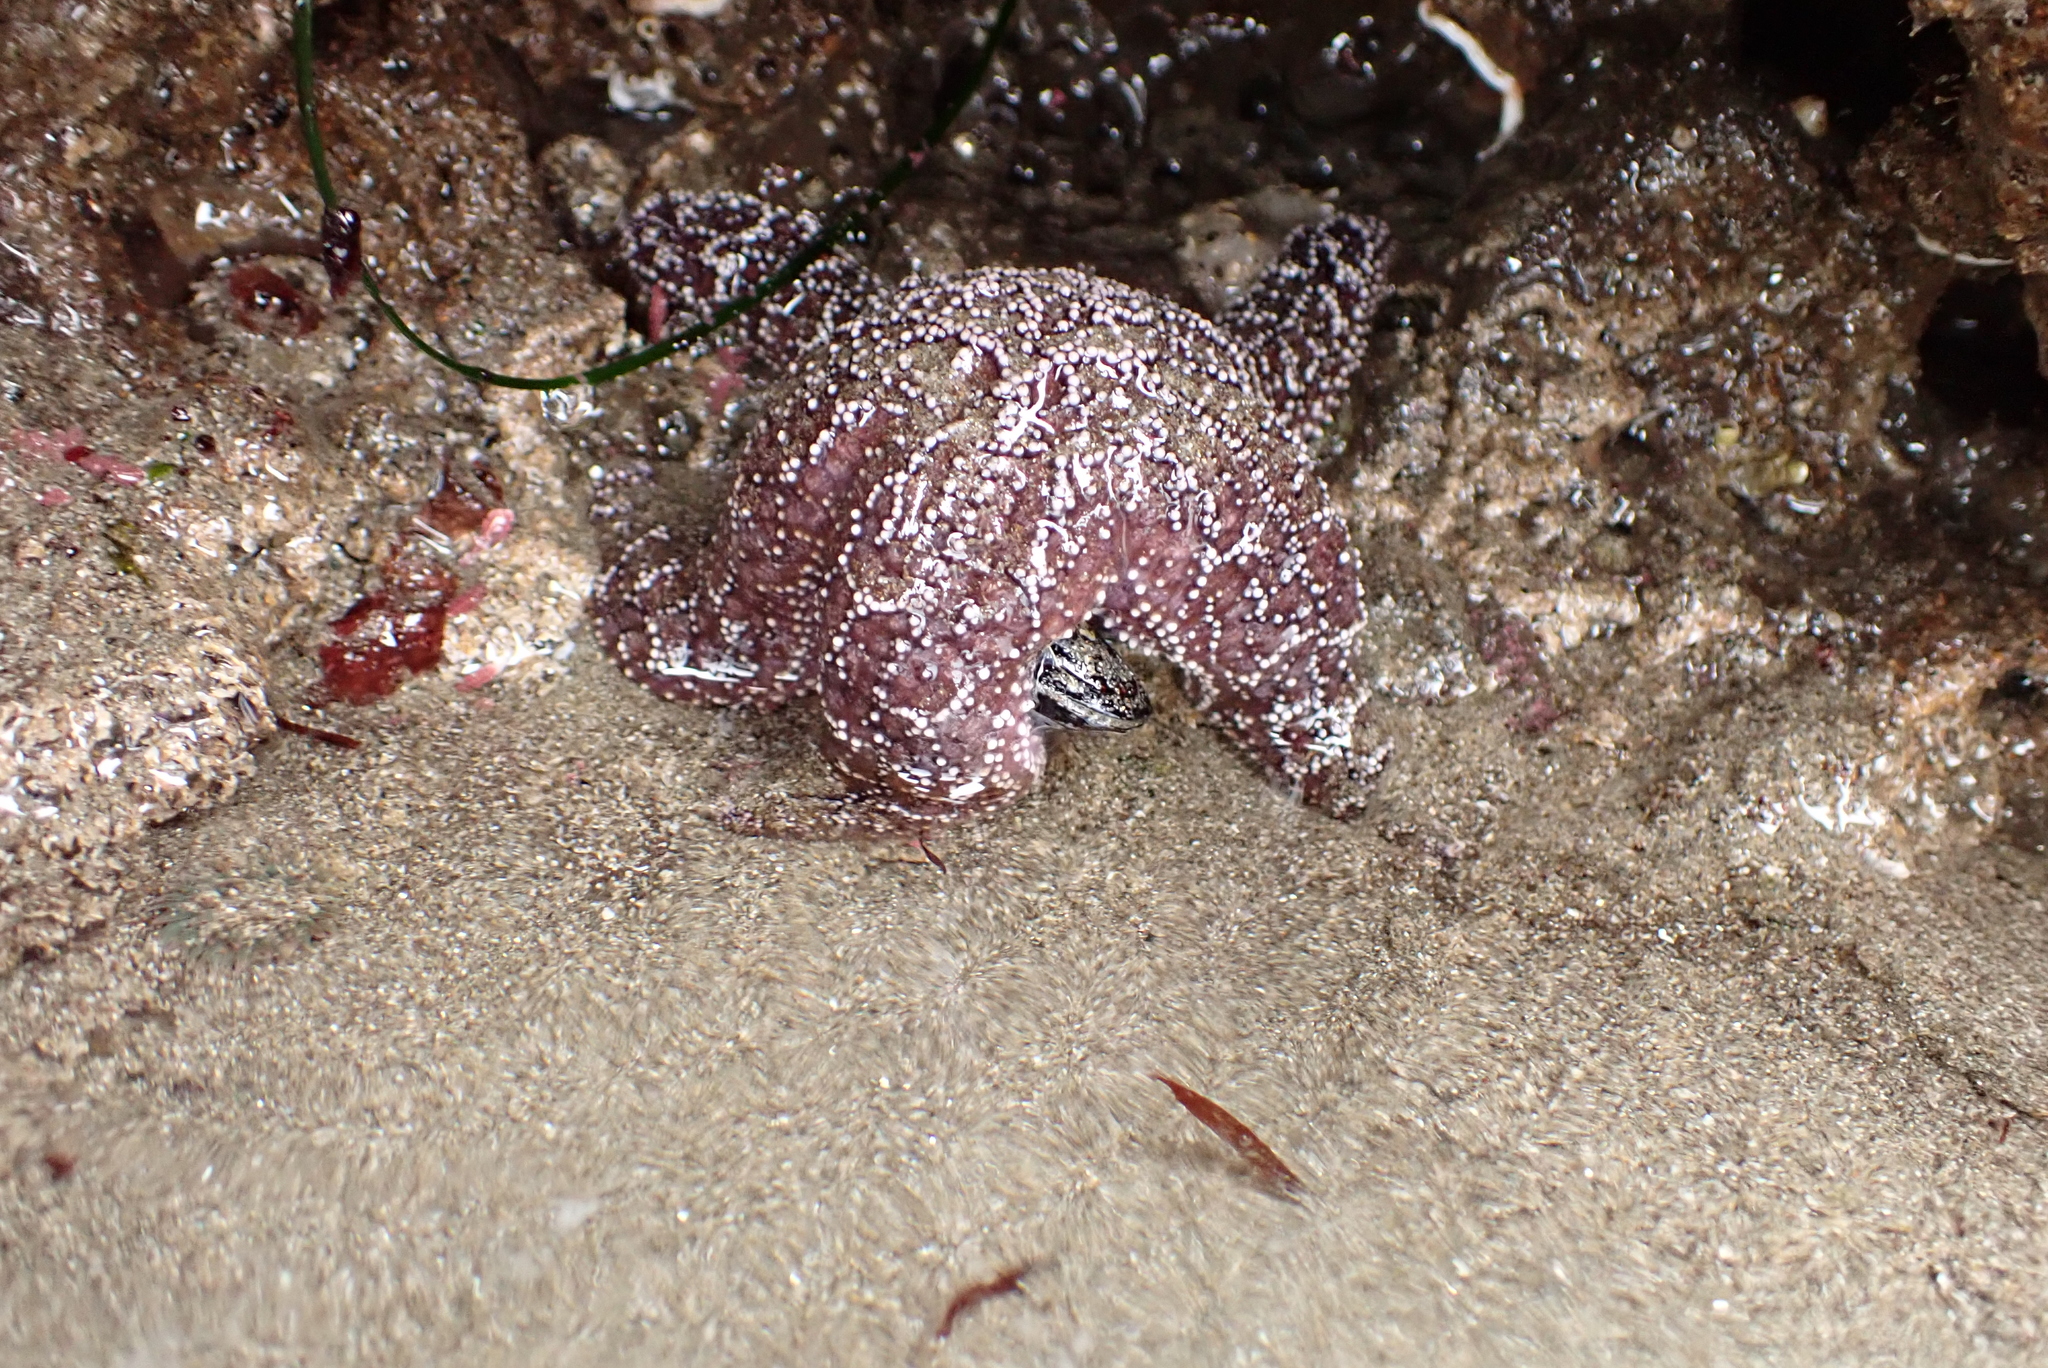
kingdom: Animalia
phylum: Echinodermata
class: Asteroidea
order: Forcipulatida
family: Asteriidae
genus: Pisaster
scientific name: Pisaster ochraceus
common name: Ochre stars
